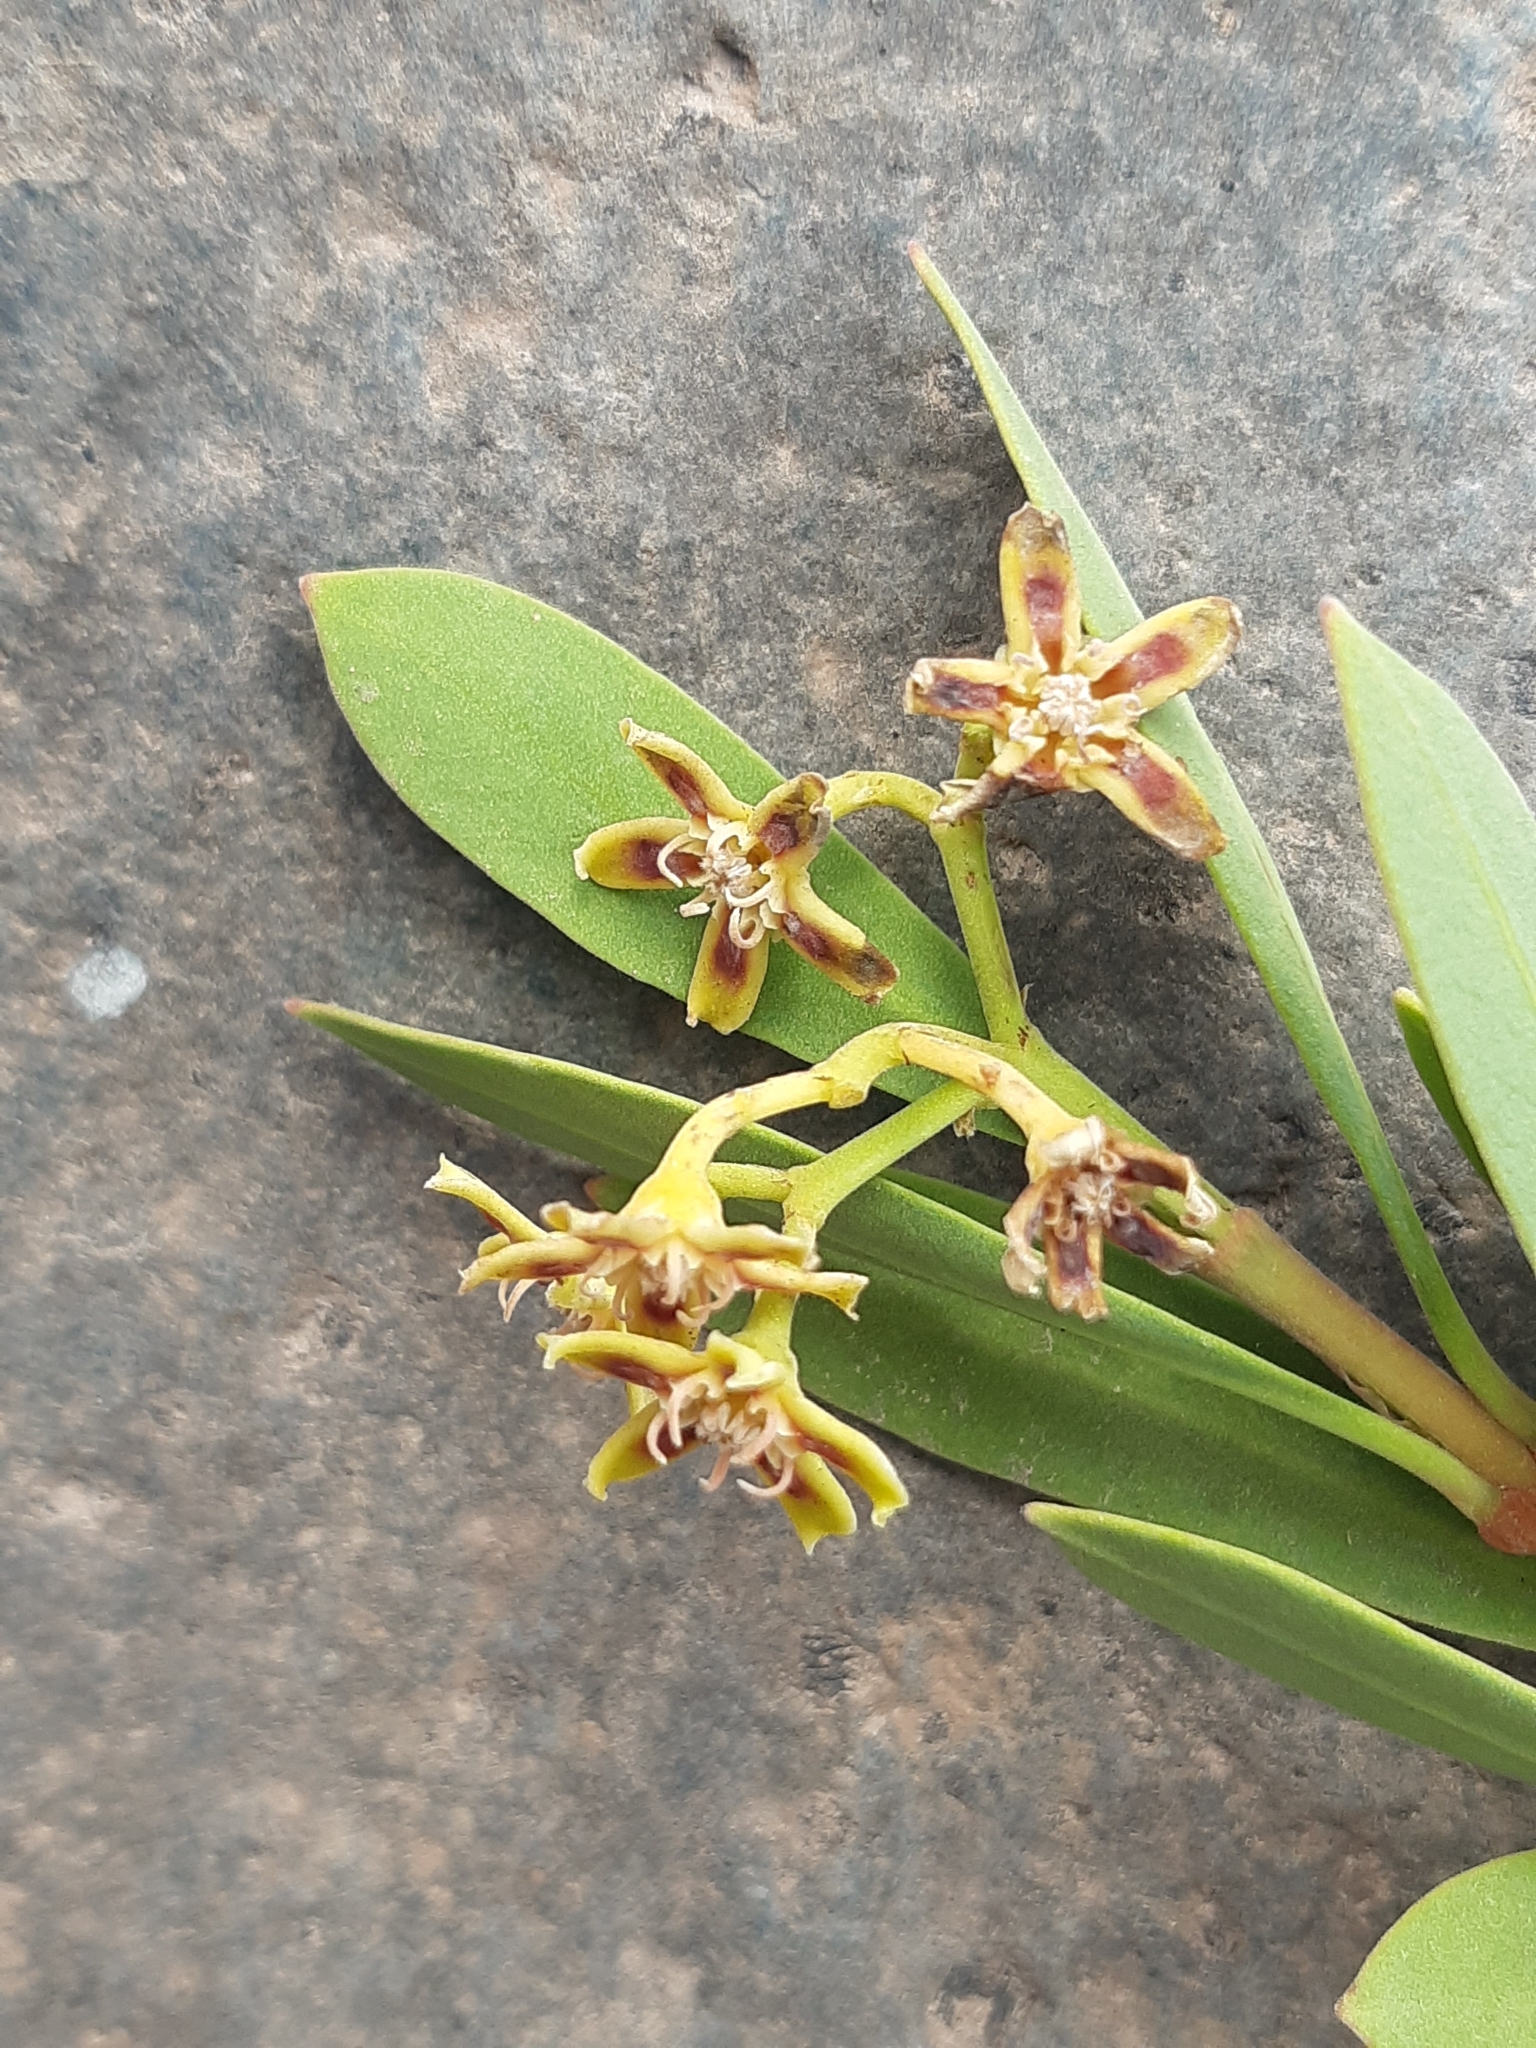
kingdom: Plantae
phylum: Tracheophyta
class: Magnoliopsida
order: Gentianales
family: Apocynaceae
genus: Periploca
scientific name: Periploca laevigata
